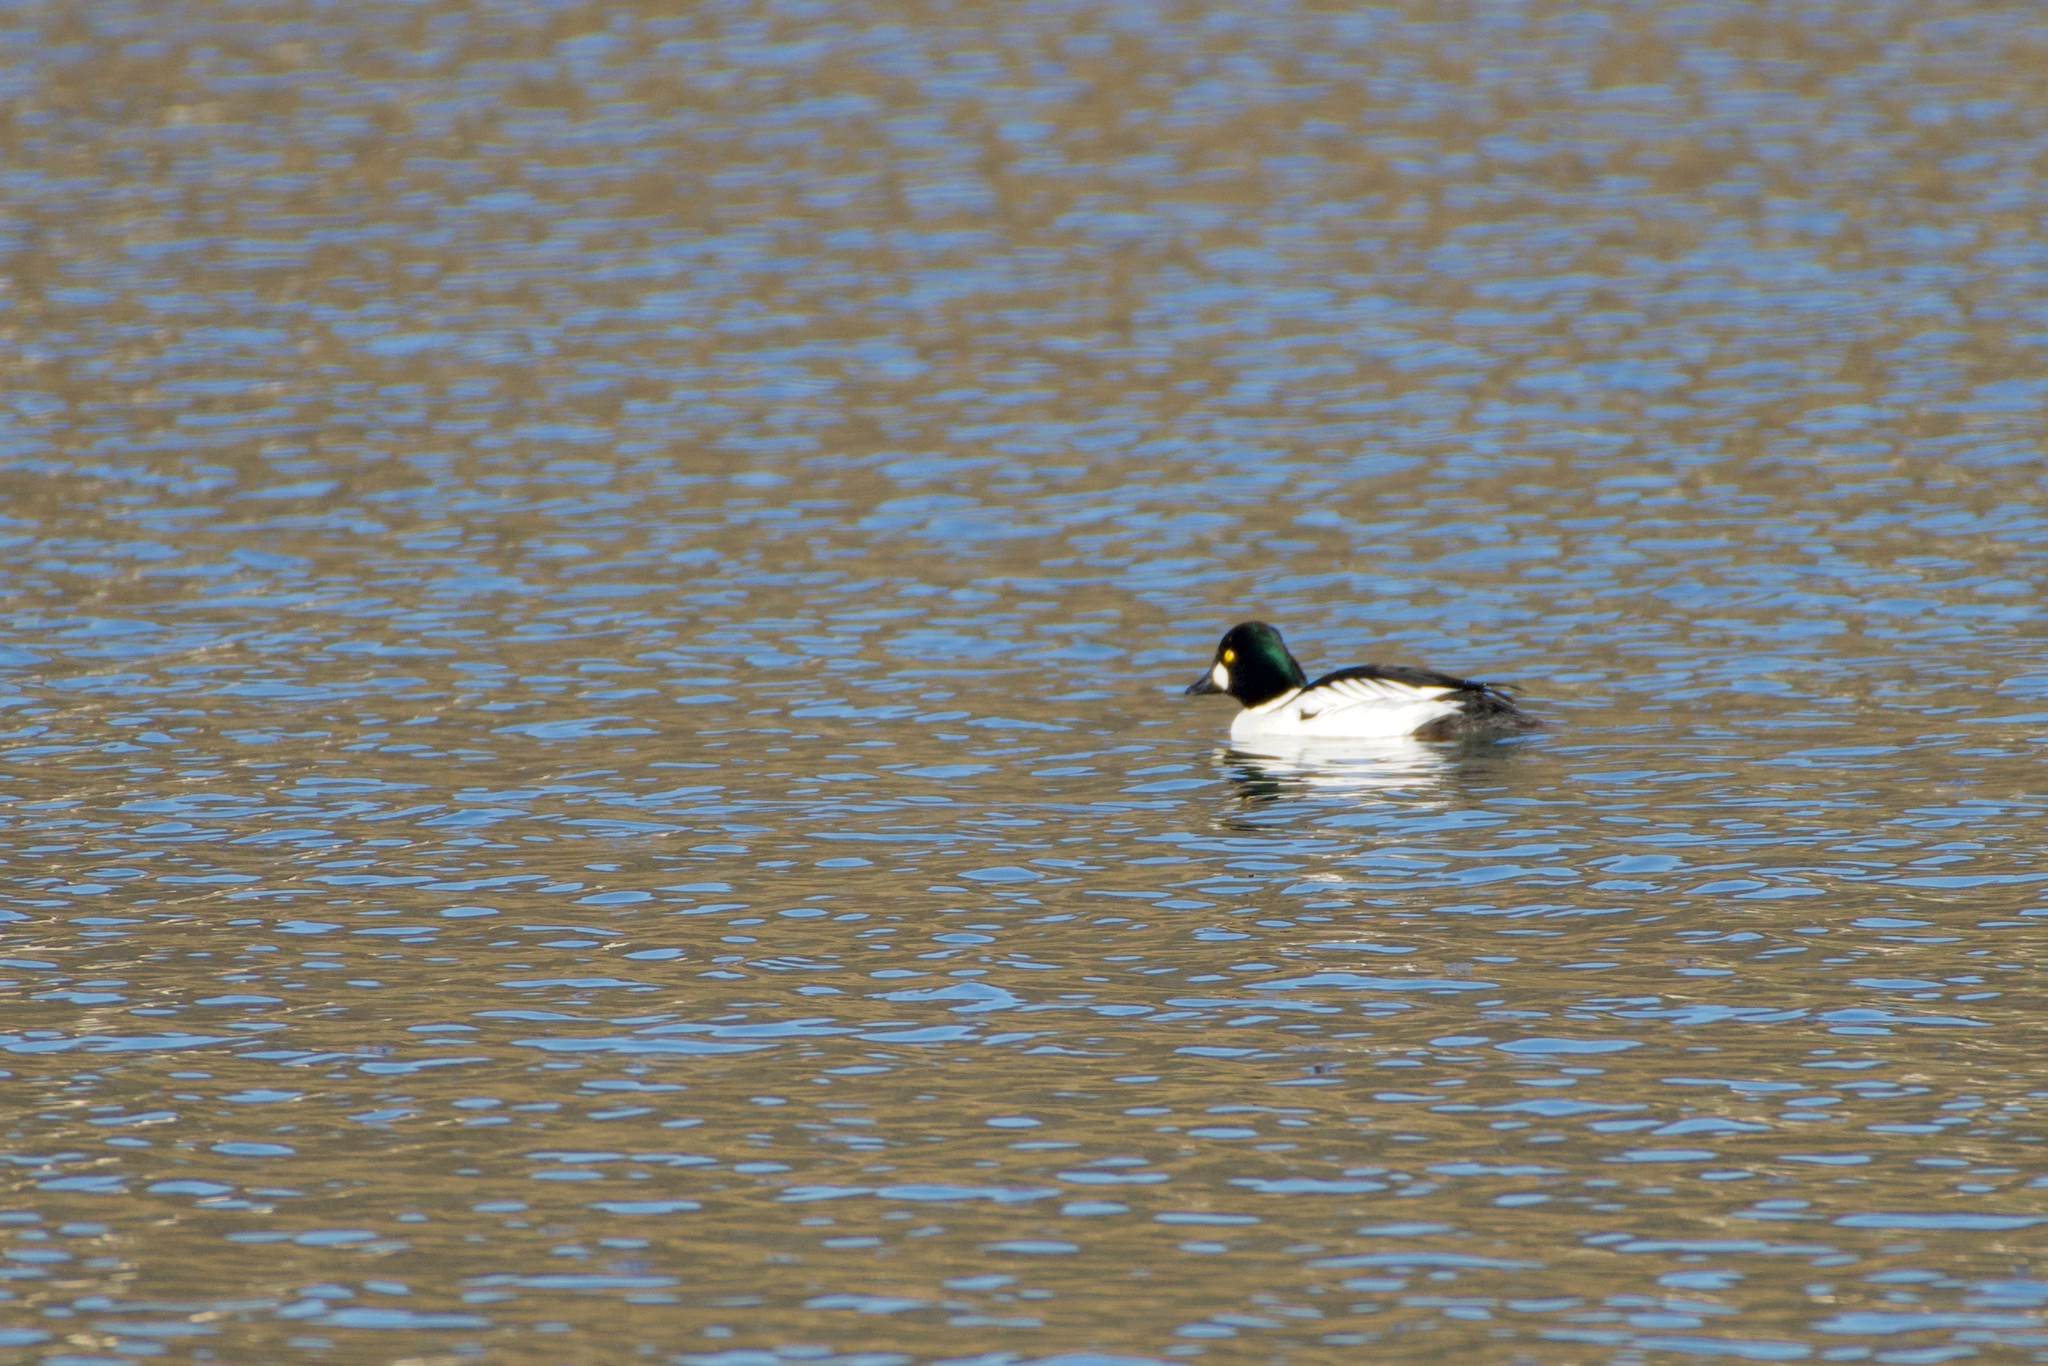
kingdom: Animalia
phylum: Chordata
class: Aves
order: Anseriformes
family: Anatidae
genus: Bucephala
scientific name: Bucephala clangula
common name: Common goldeneye
